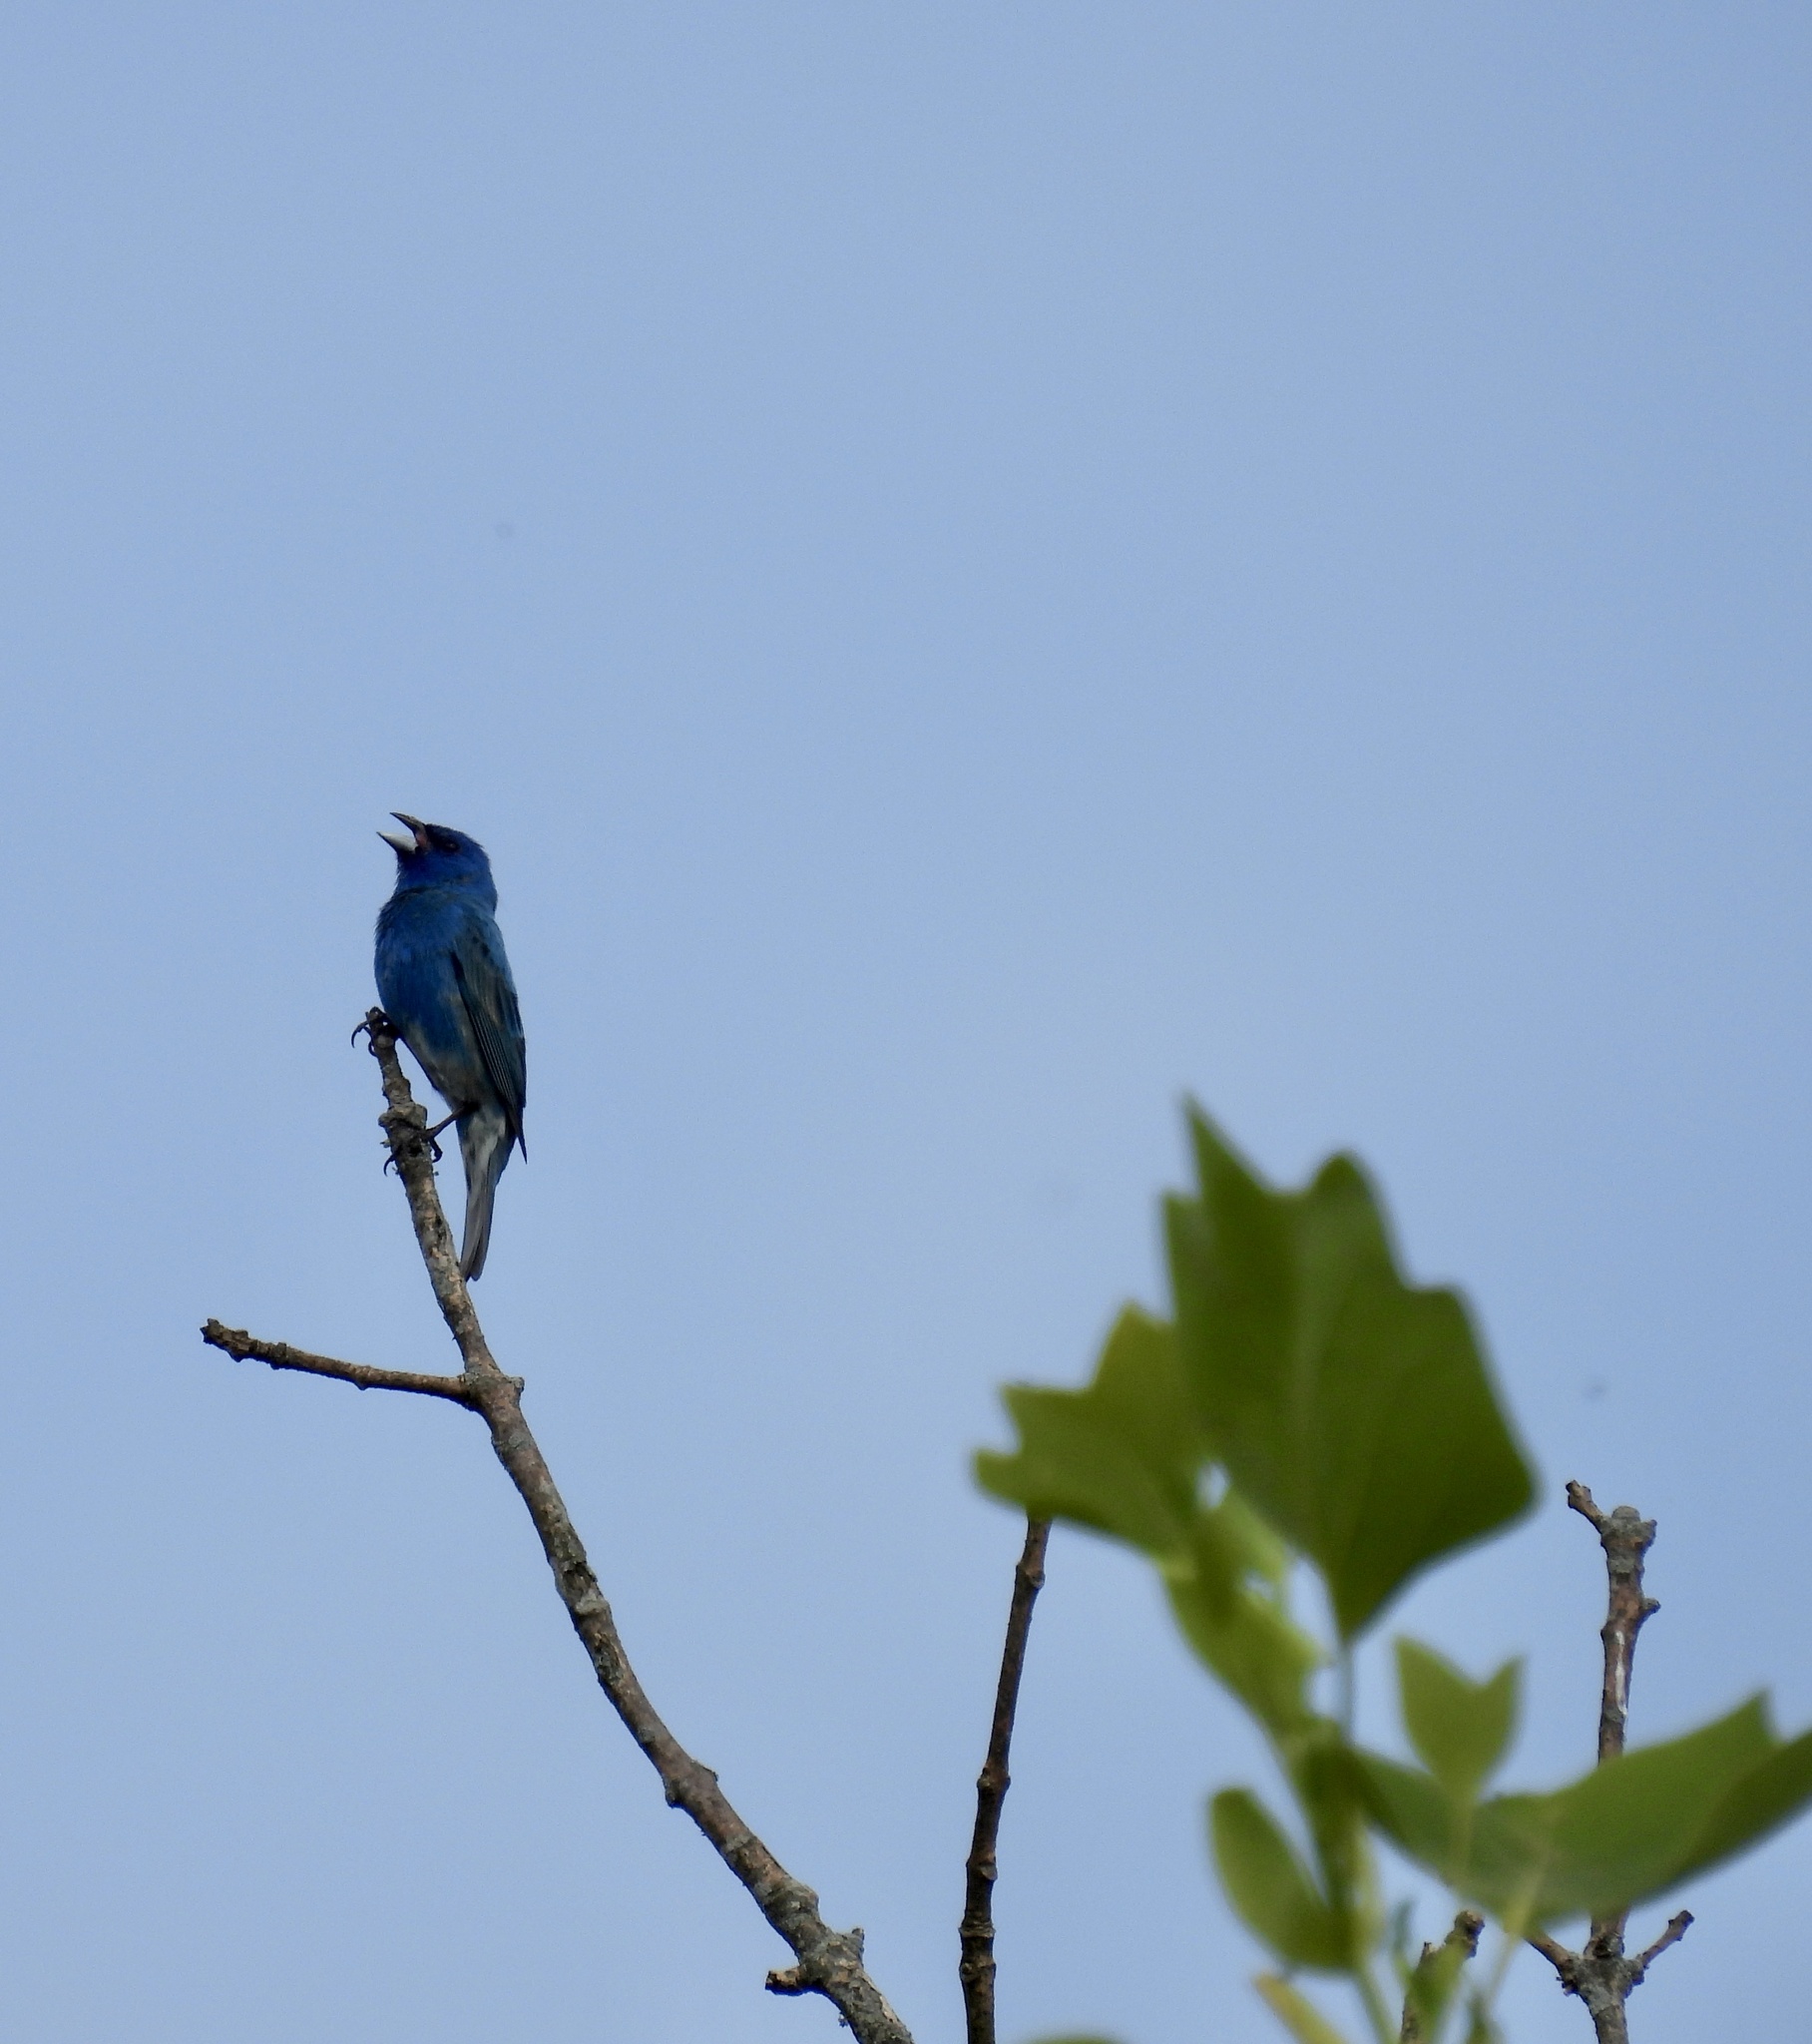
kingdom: Animalia
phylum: Chordata
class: Aves
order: Passeriformes
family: Cardinalidae
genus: Passerina
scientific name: Passerina cyanea
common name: Indigo bunting
